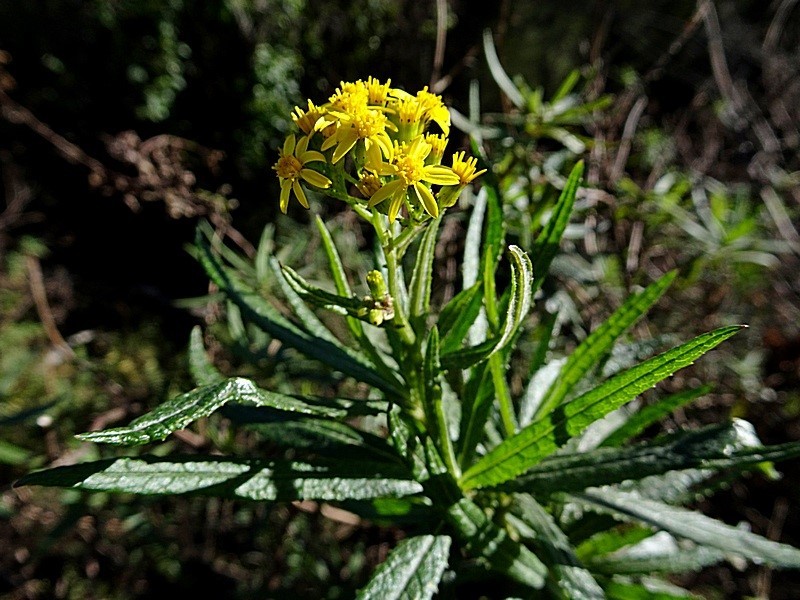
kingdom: Plantae
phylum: Tracheophyta
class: Magnoliopsida
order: Asterales
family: Asteraceae
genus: Senecio
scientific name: Senecio linearifolius
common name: Fireweed groundsel
